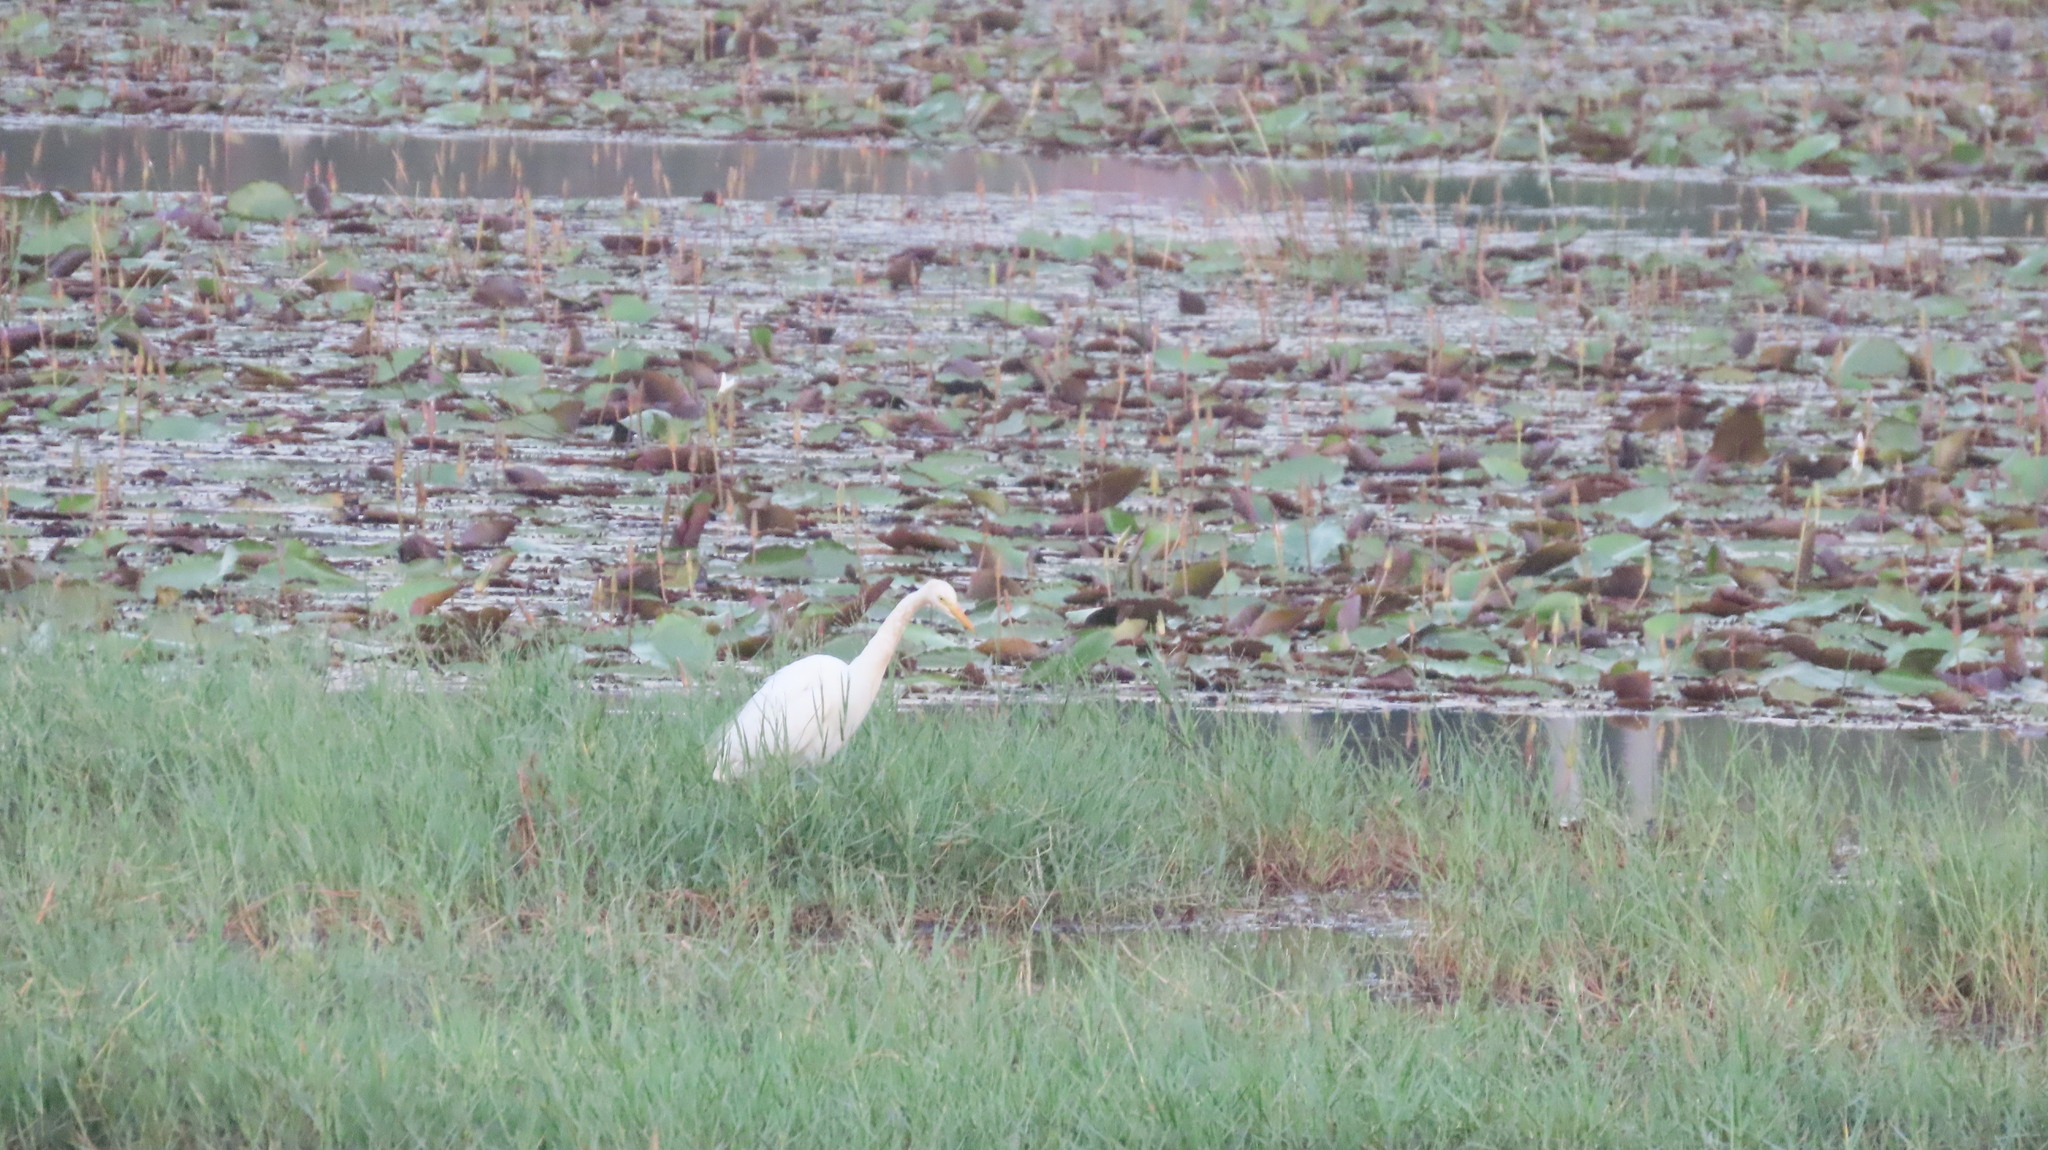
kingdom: Animalia
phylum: Chordata
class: Aves
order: Pelecaniformes
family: Ardeidae
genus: Egretta
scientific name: Egretta intermedia
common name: Intermediate egret
